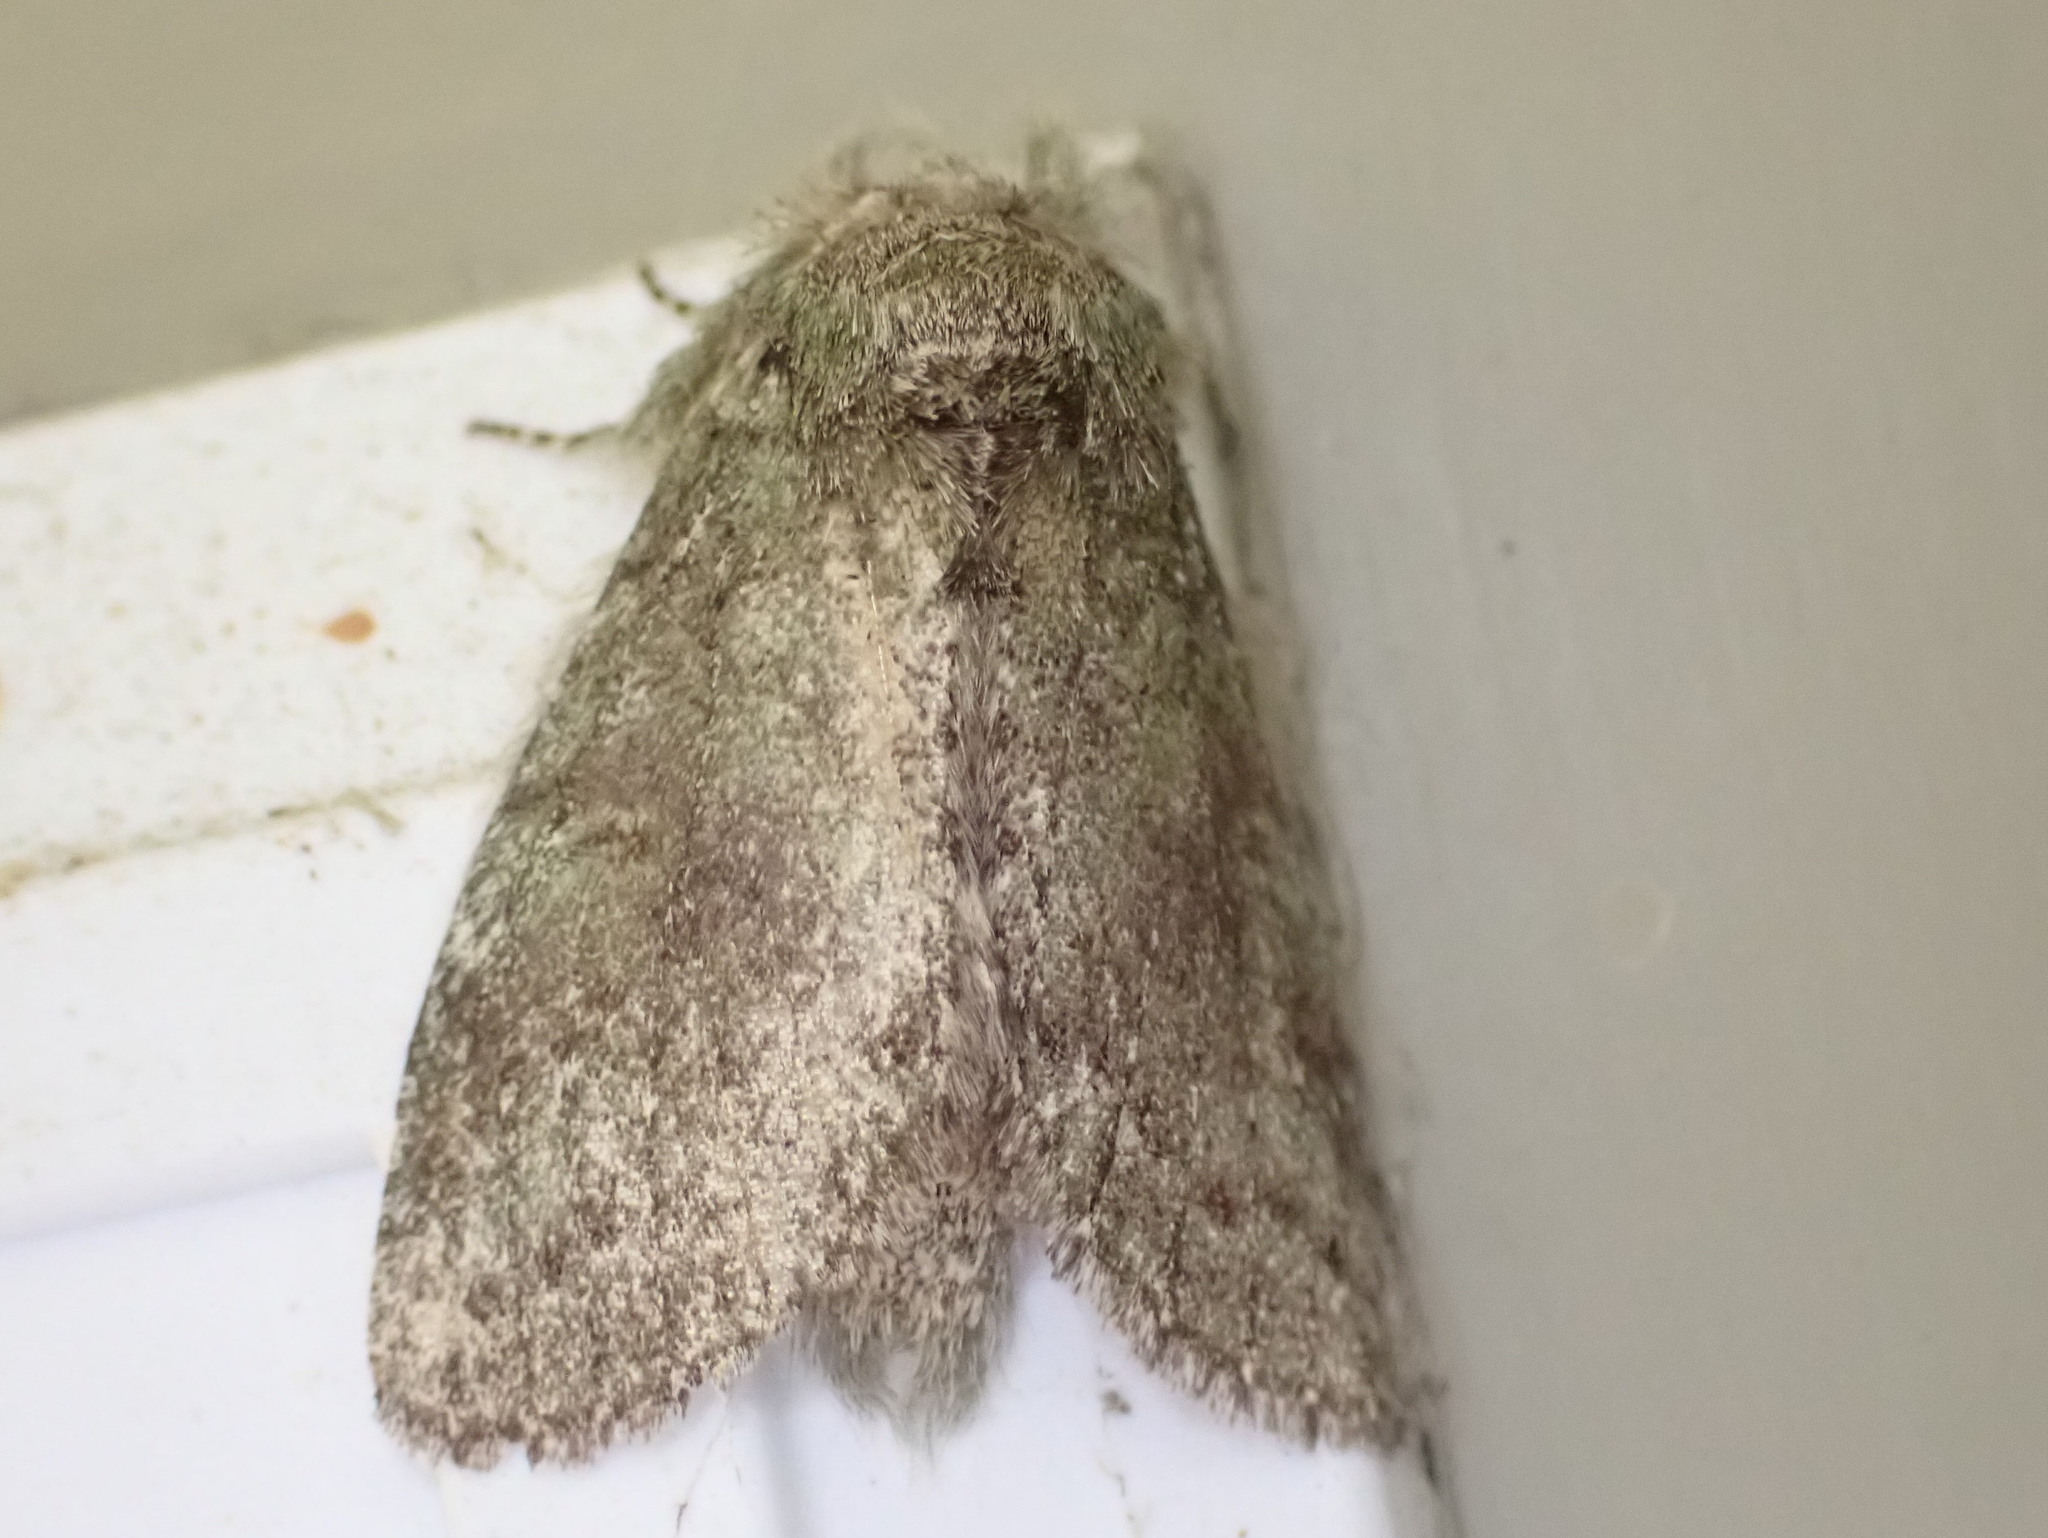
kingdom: Animalia
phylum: Arthropoda
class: Insecta
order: Lepidoptera
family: Notodontidae
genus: Disphragis
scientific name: Disphragis Cecrita guttivitta
